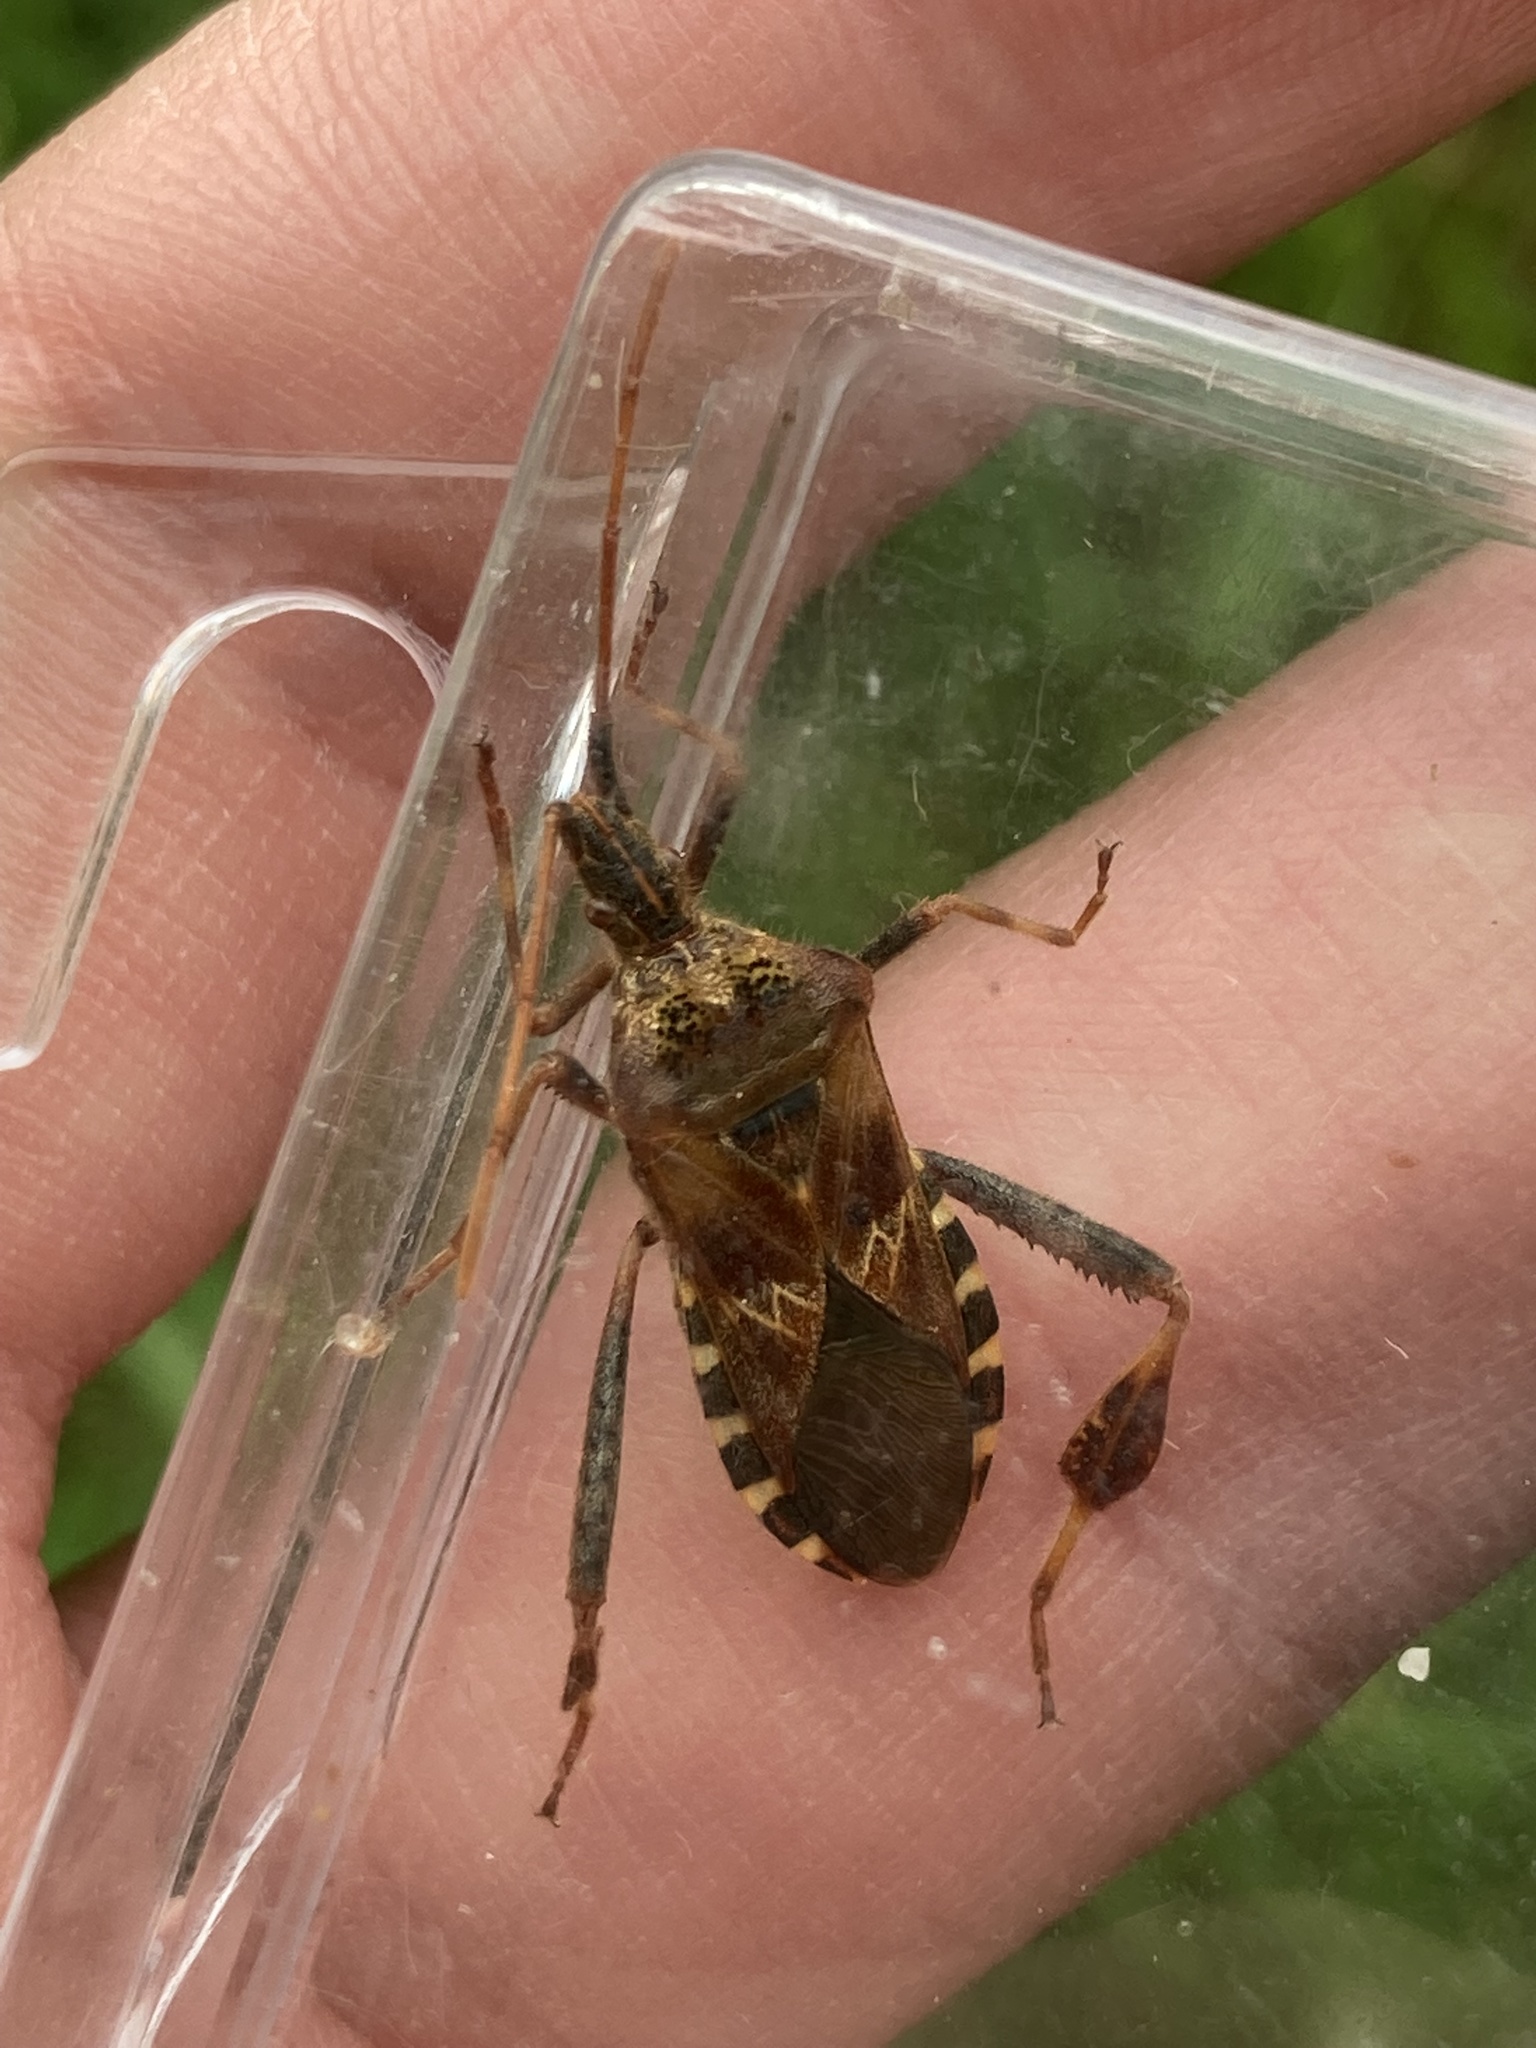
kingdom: Animalia
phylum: Arthropoda
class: Insecta
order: Hemiptera
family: Coreidae
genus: Leptoglossus
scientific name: Leptoglossus occidentalis
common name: Western conifer-seed bug
